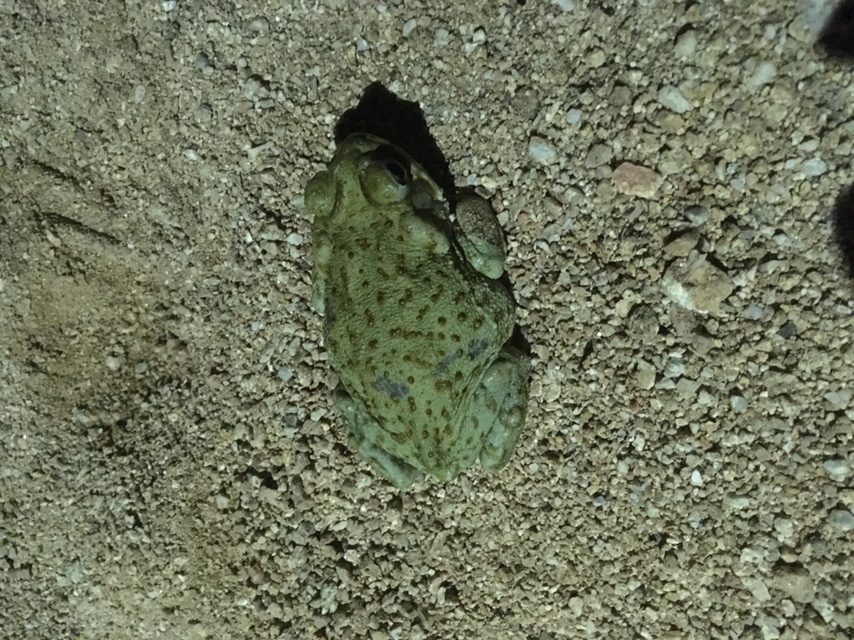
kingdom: Animalia
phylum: Chordata
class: Amphibia
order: Anura
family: Bufonidae
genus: Incilius
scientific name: Incilius alvarius
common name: Sonoran desert toad
